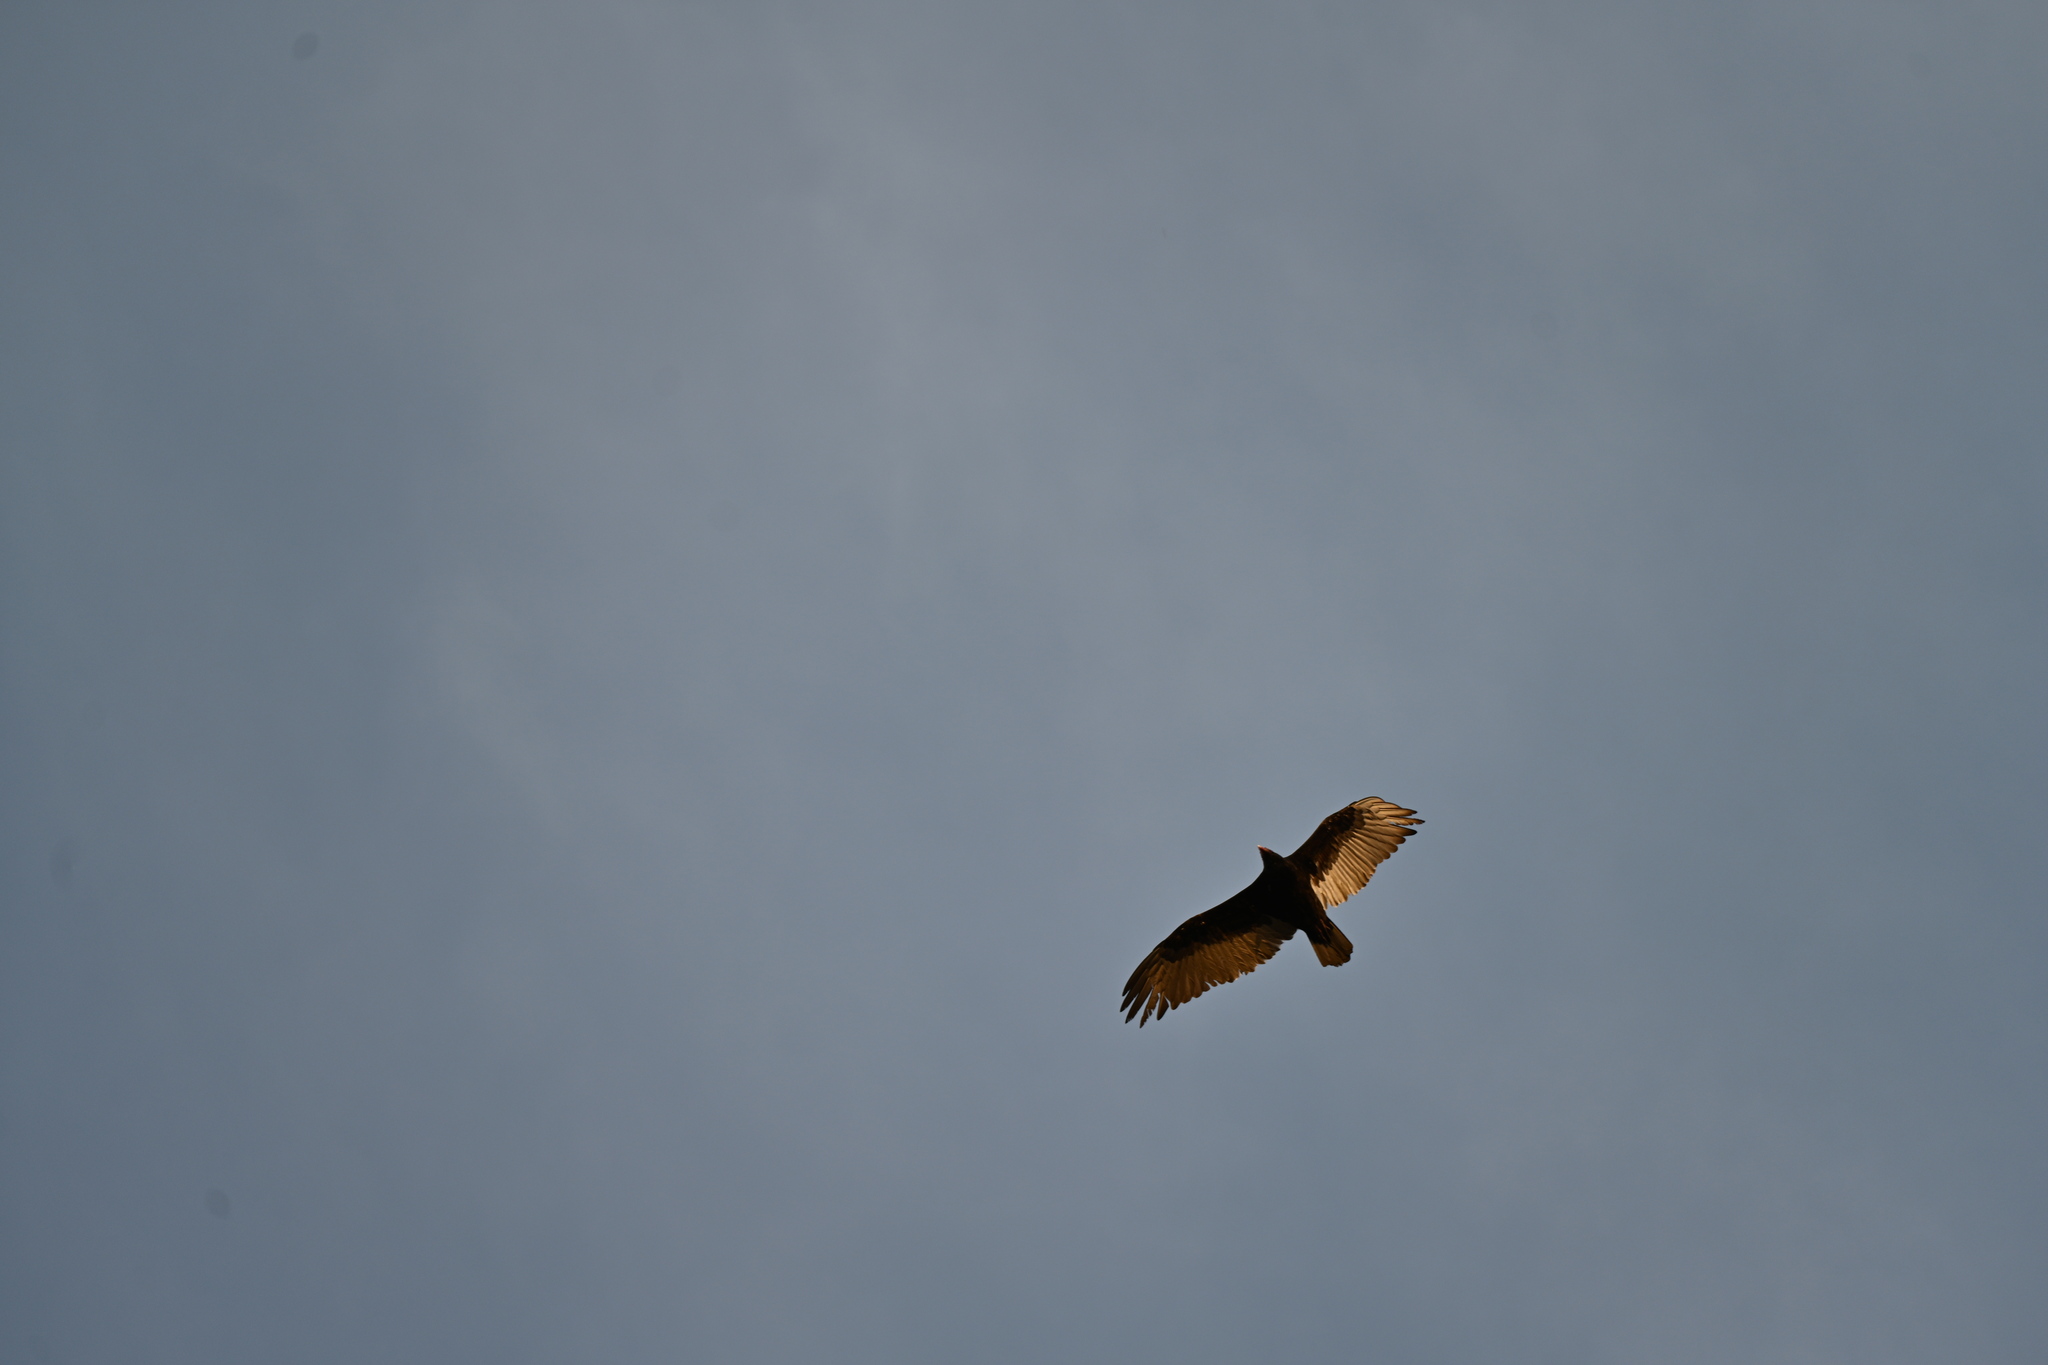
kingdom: Animalia
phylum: Chordata
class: Aves
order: Accipitriformes
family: Cathartidae
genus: Cathartes
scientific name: Cathartes aura
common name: Turkey vulture
